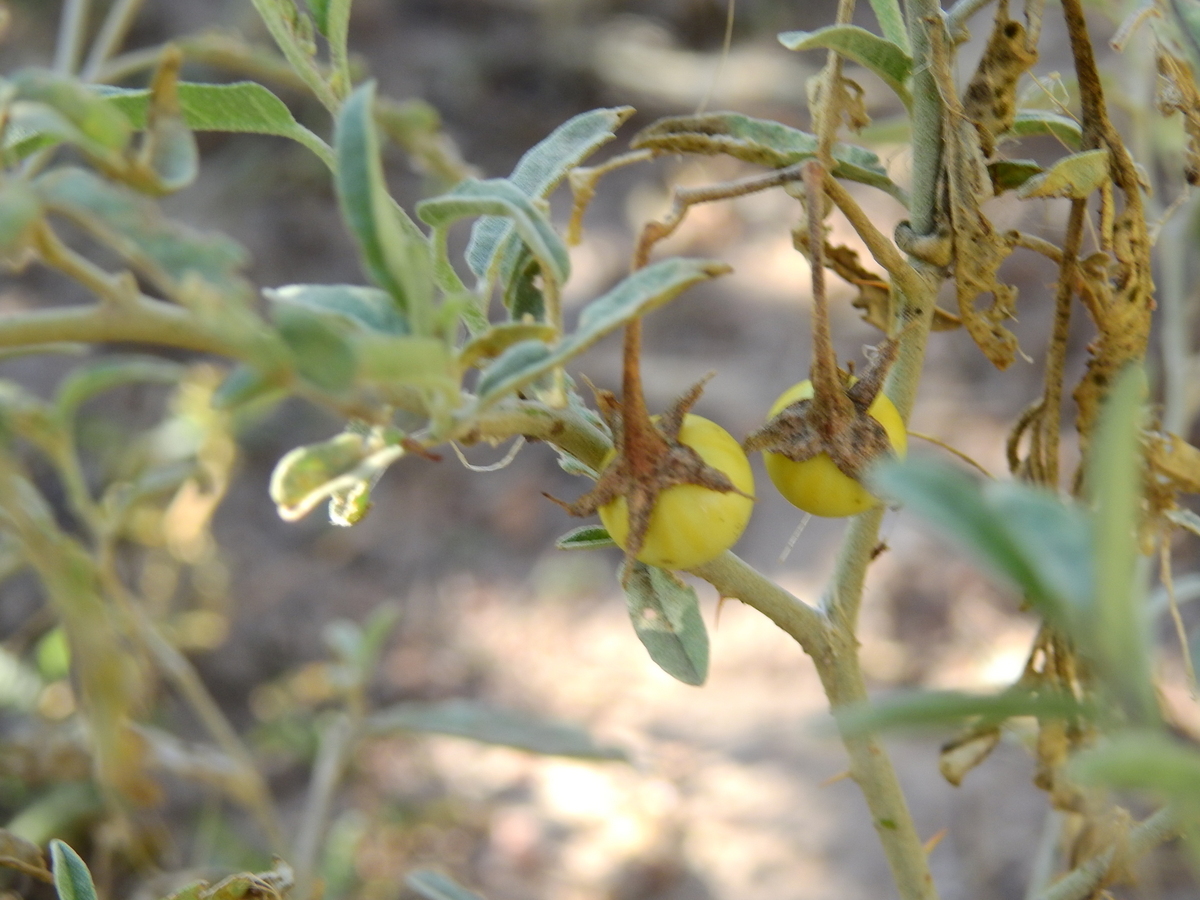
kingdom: Plantae
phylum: Tracheophyta
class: Magnoliopsida
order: Solanales
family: Solanaceae
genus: Solanum
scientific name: Solanum elaeagnifolium
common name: Silverleaf nightshade
